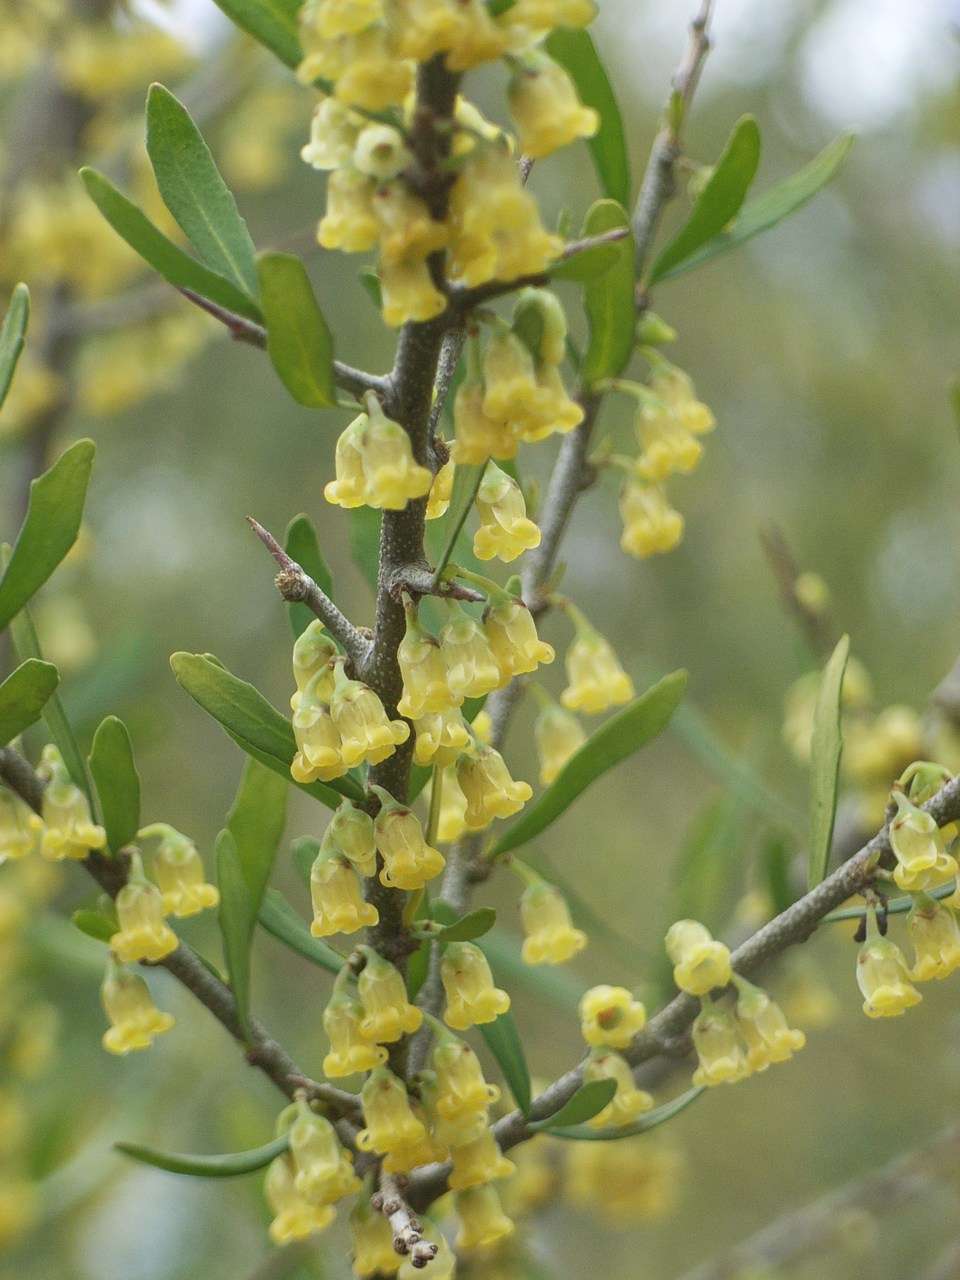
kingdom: Plantae
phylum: Tracheophyta
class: Magnoliopsida
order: Malpighiales
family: Violaceae
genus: Melicytus
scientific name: Melicytus dentatus
